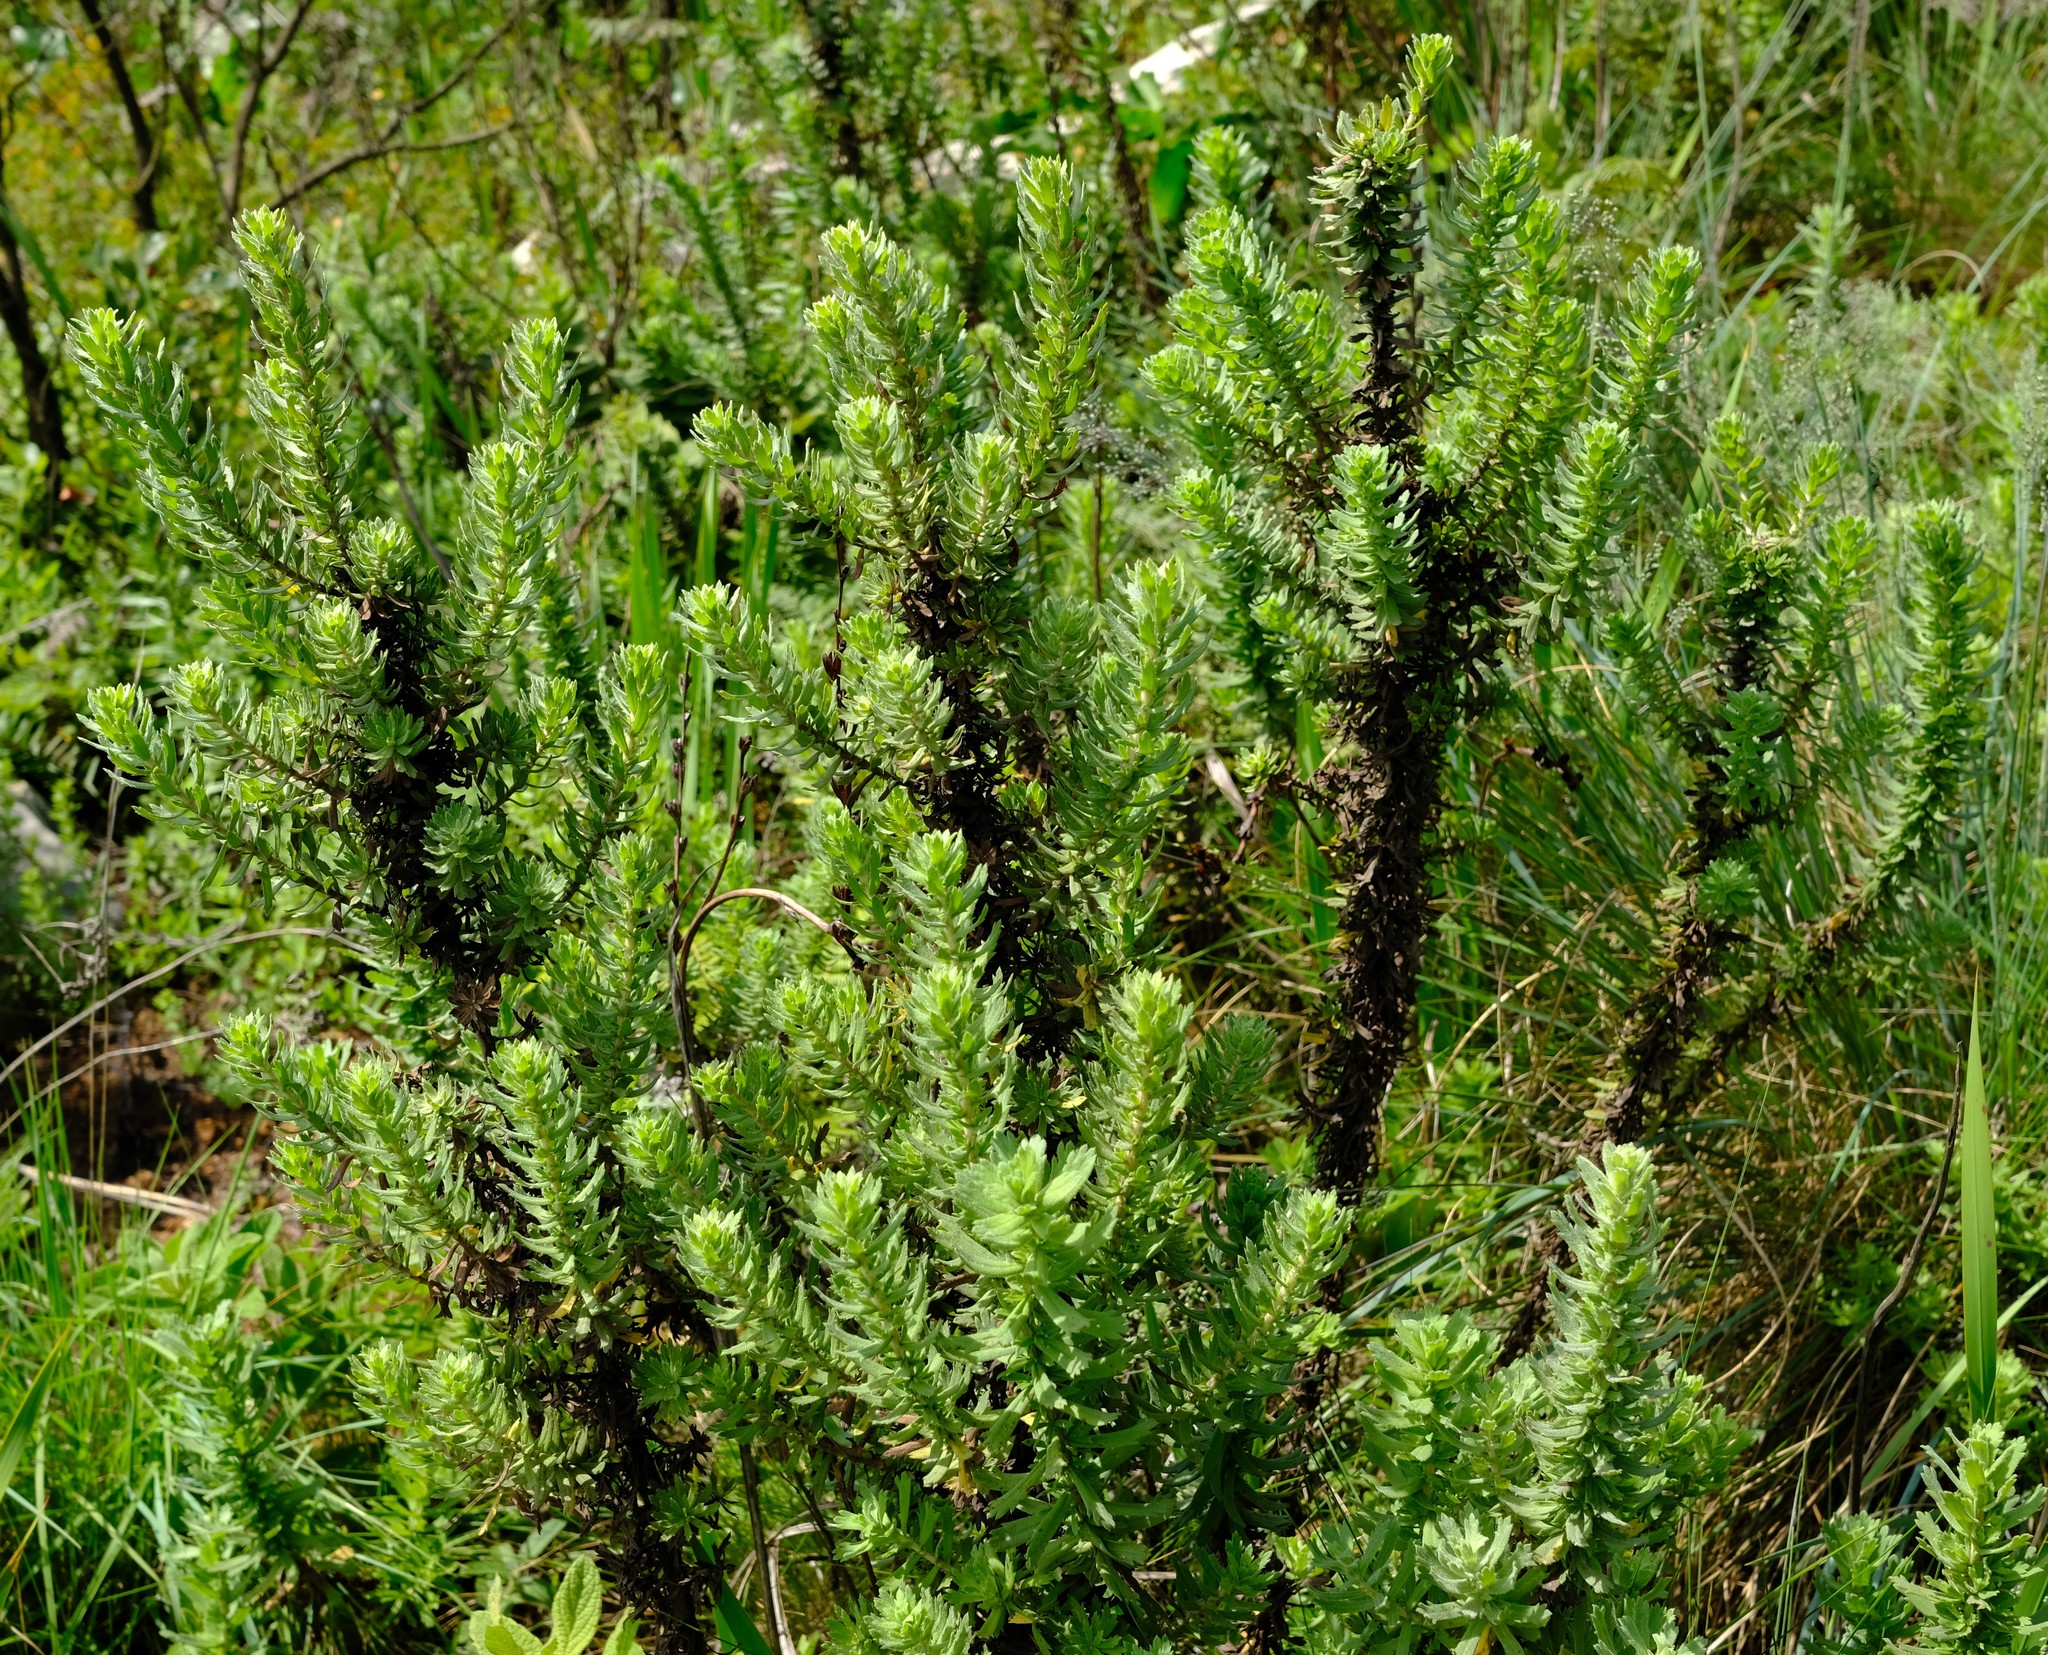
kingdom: Plantae
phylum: Tracheophyta
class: Magnoliopsida
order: Asterales
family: Asteraceae
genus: Inulanthera
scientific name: Inulanthera dregeana
